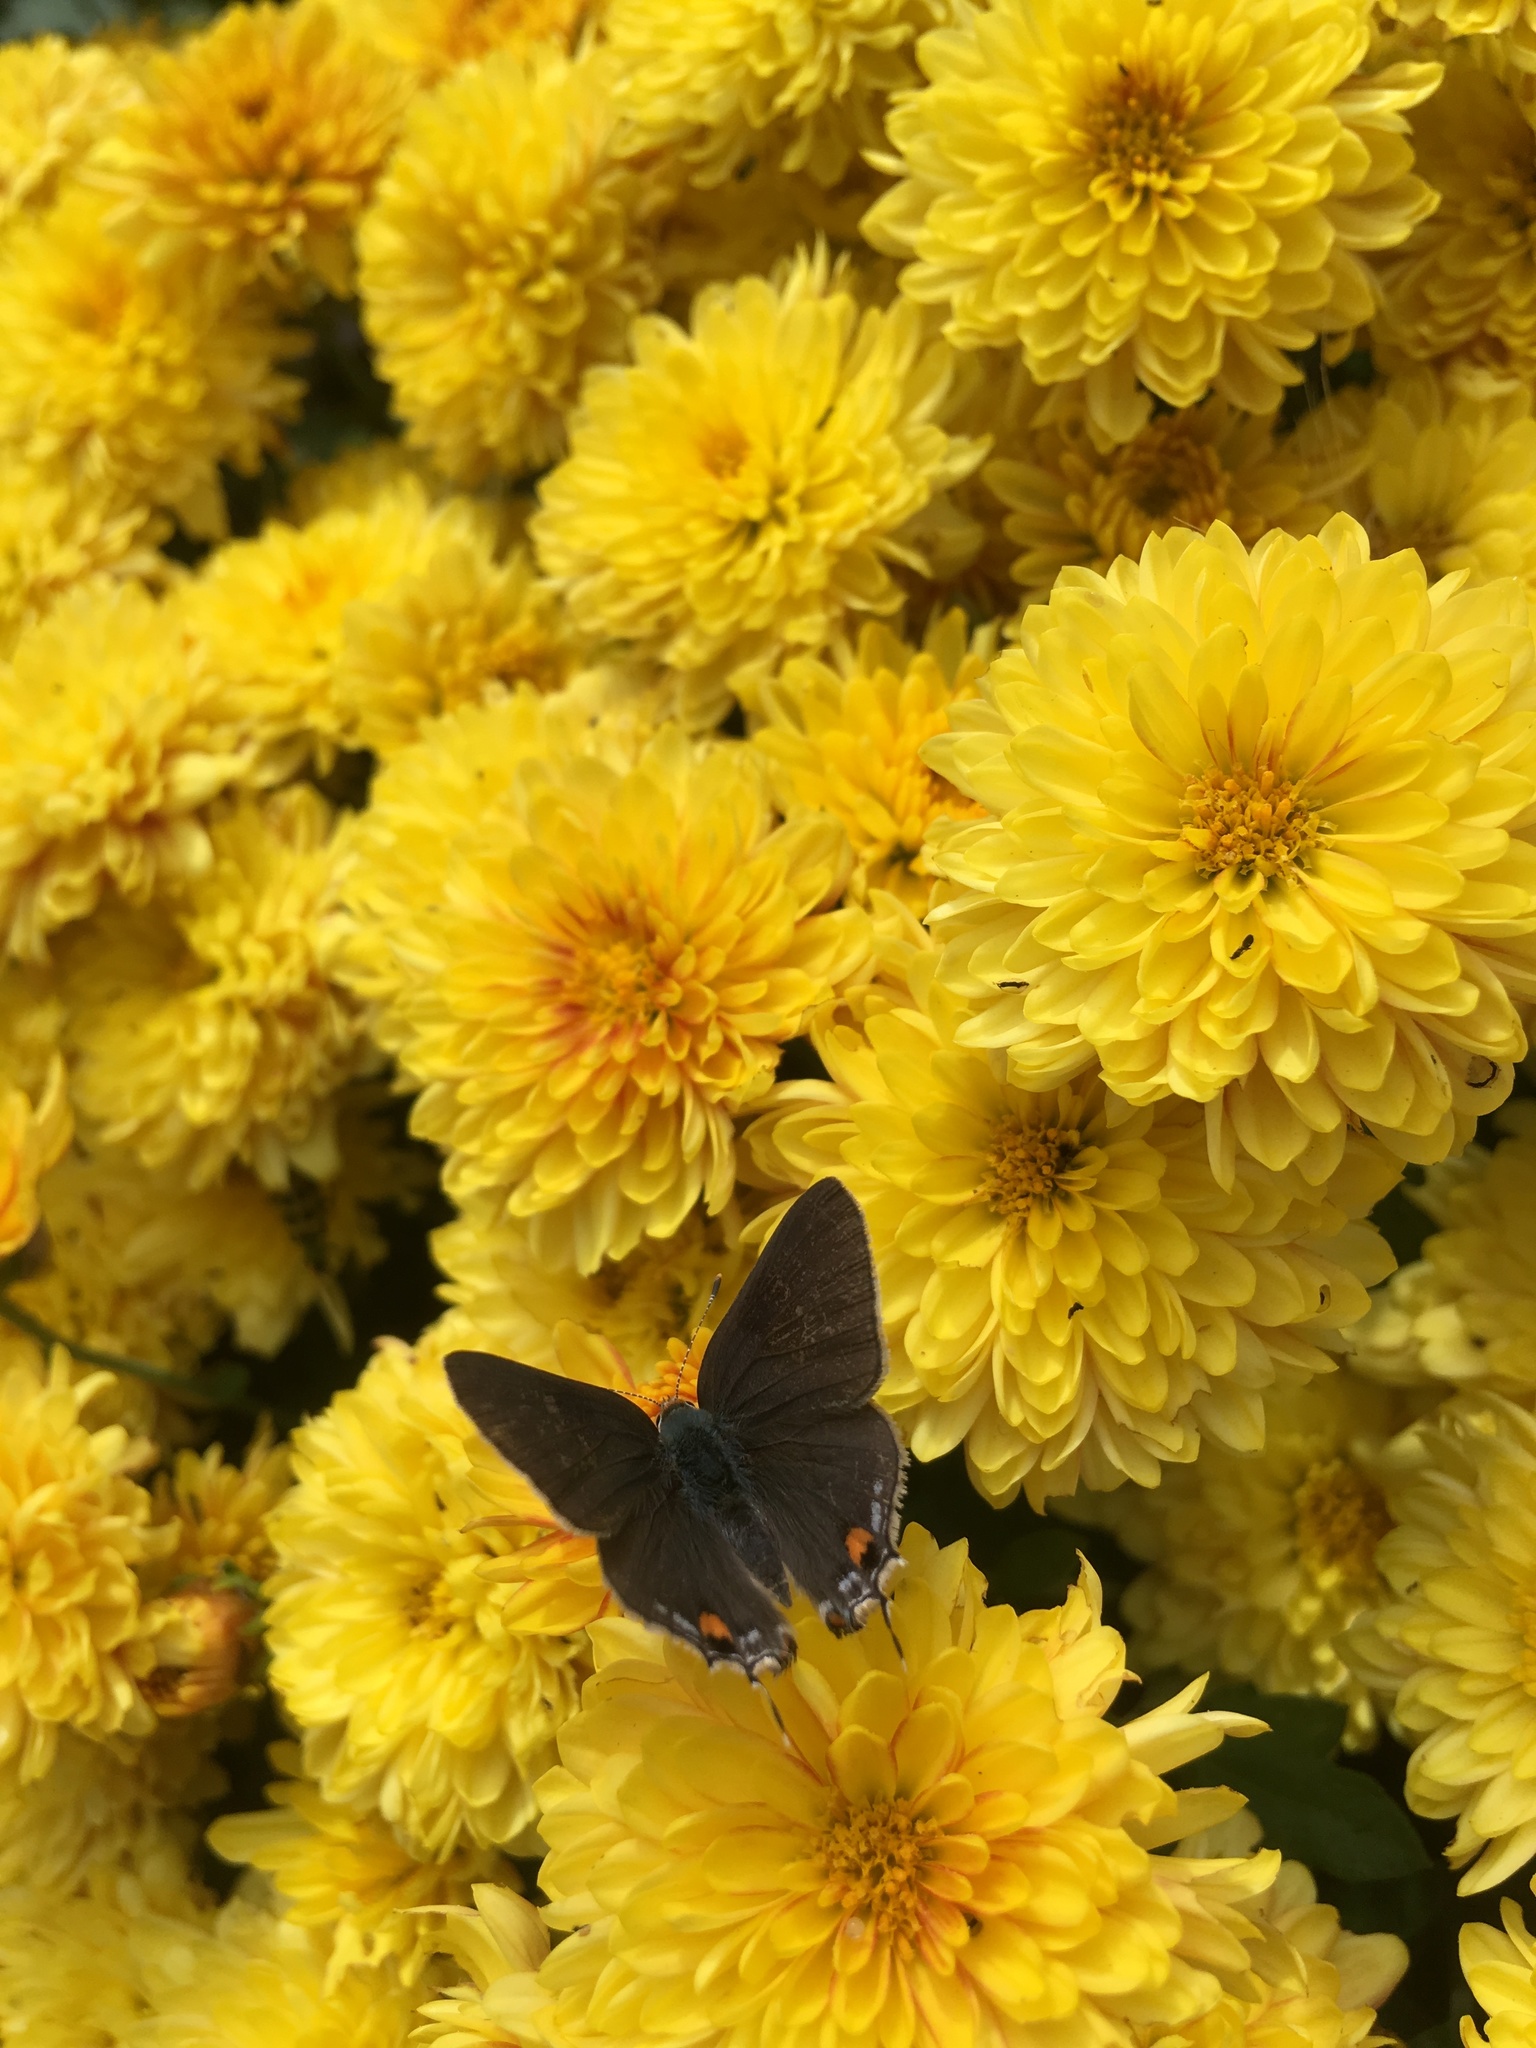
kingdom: Animalia
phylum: Arthropoda
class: Insecta
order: Lepidoptera
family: Lycaenidae
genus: Strymon
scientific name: Strymon melinus
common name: Gray hairstreak
